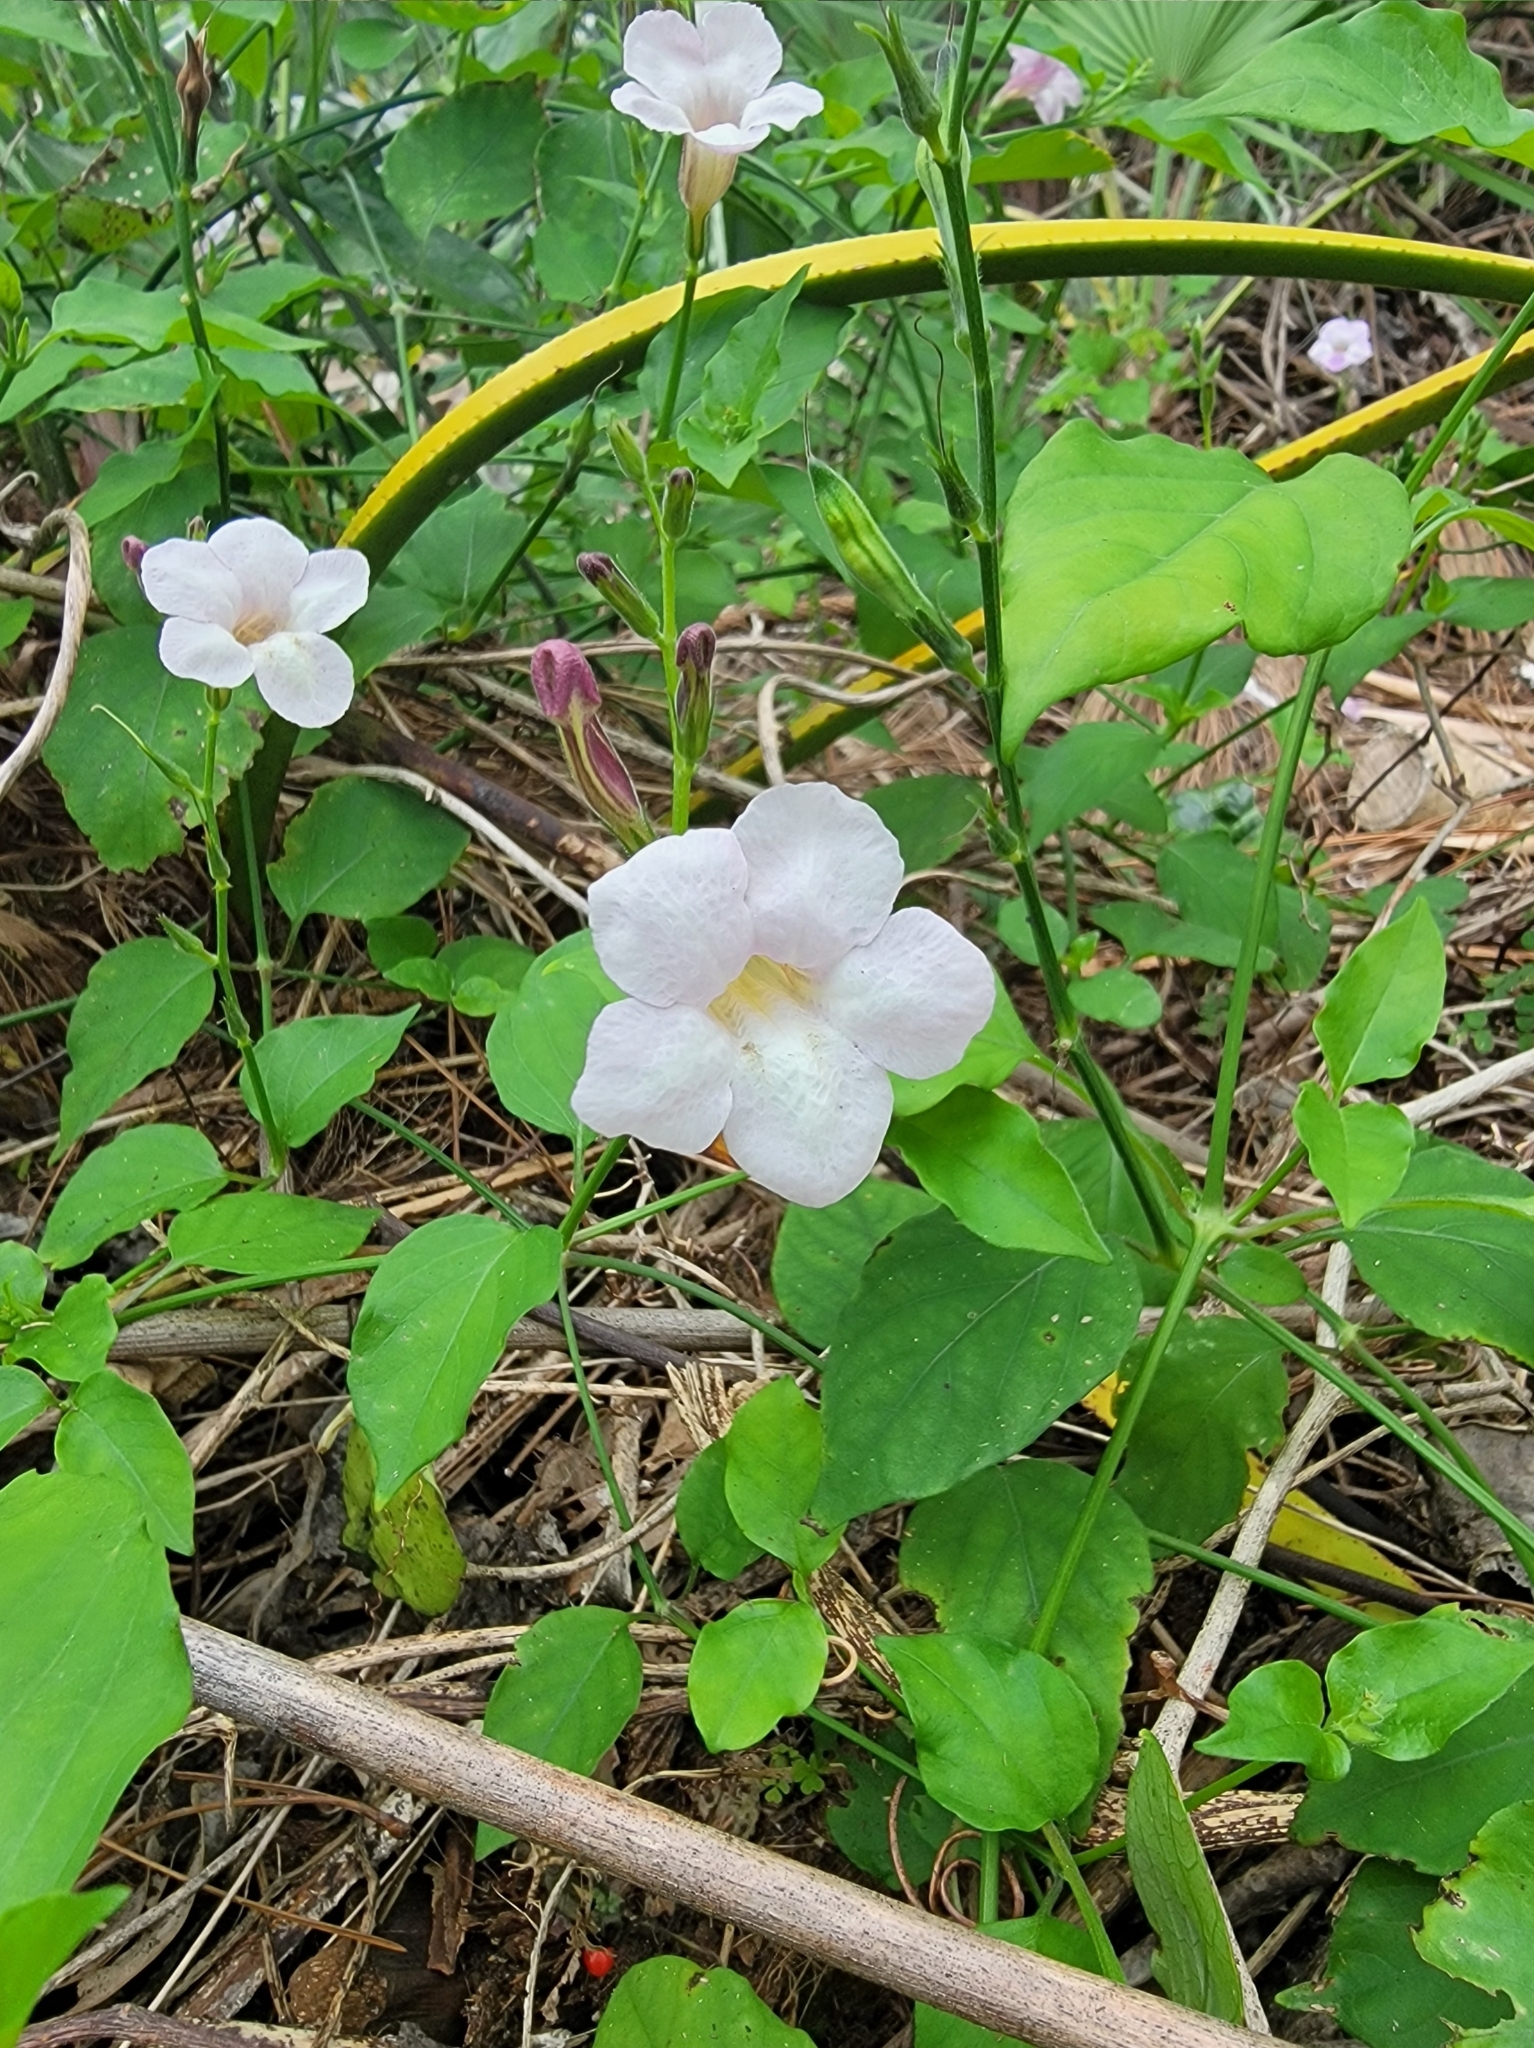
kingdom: Plantae
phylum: Tracheophyta
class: Magnoliopsida
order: Lamiales
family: Acanthaceae
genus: Asystasia
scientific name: Asystasia gangetica
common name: Chinese violet
